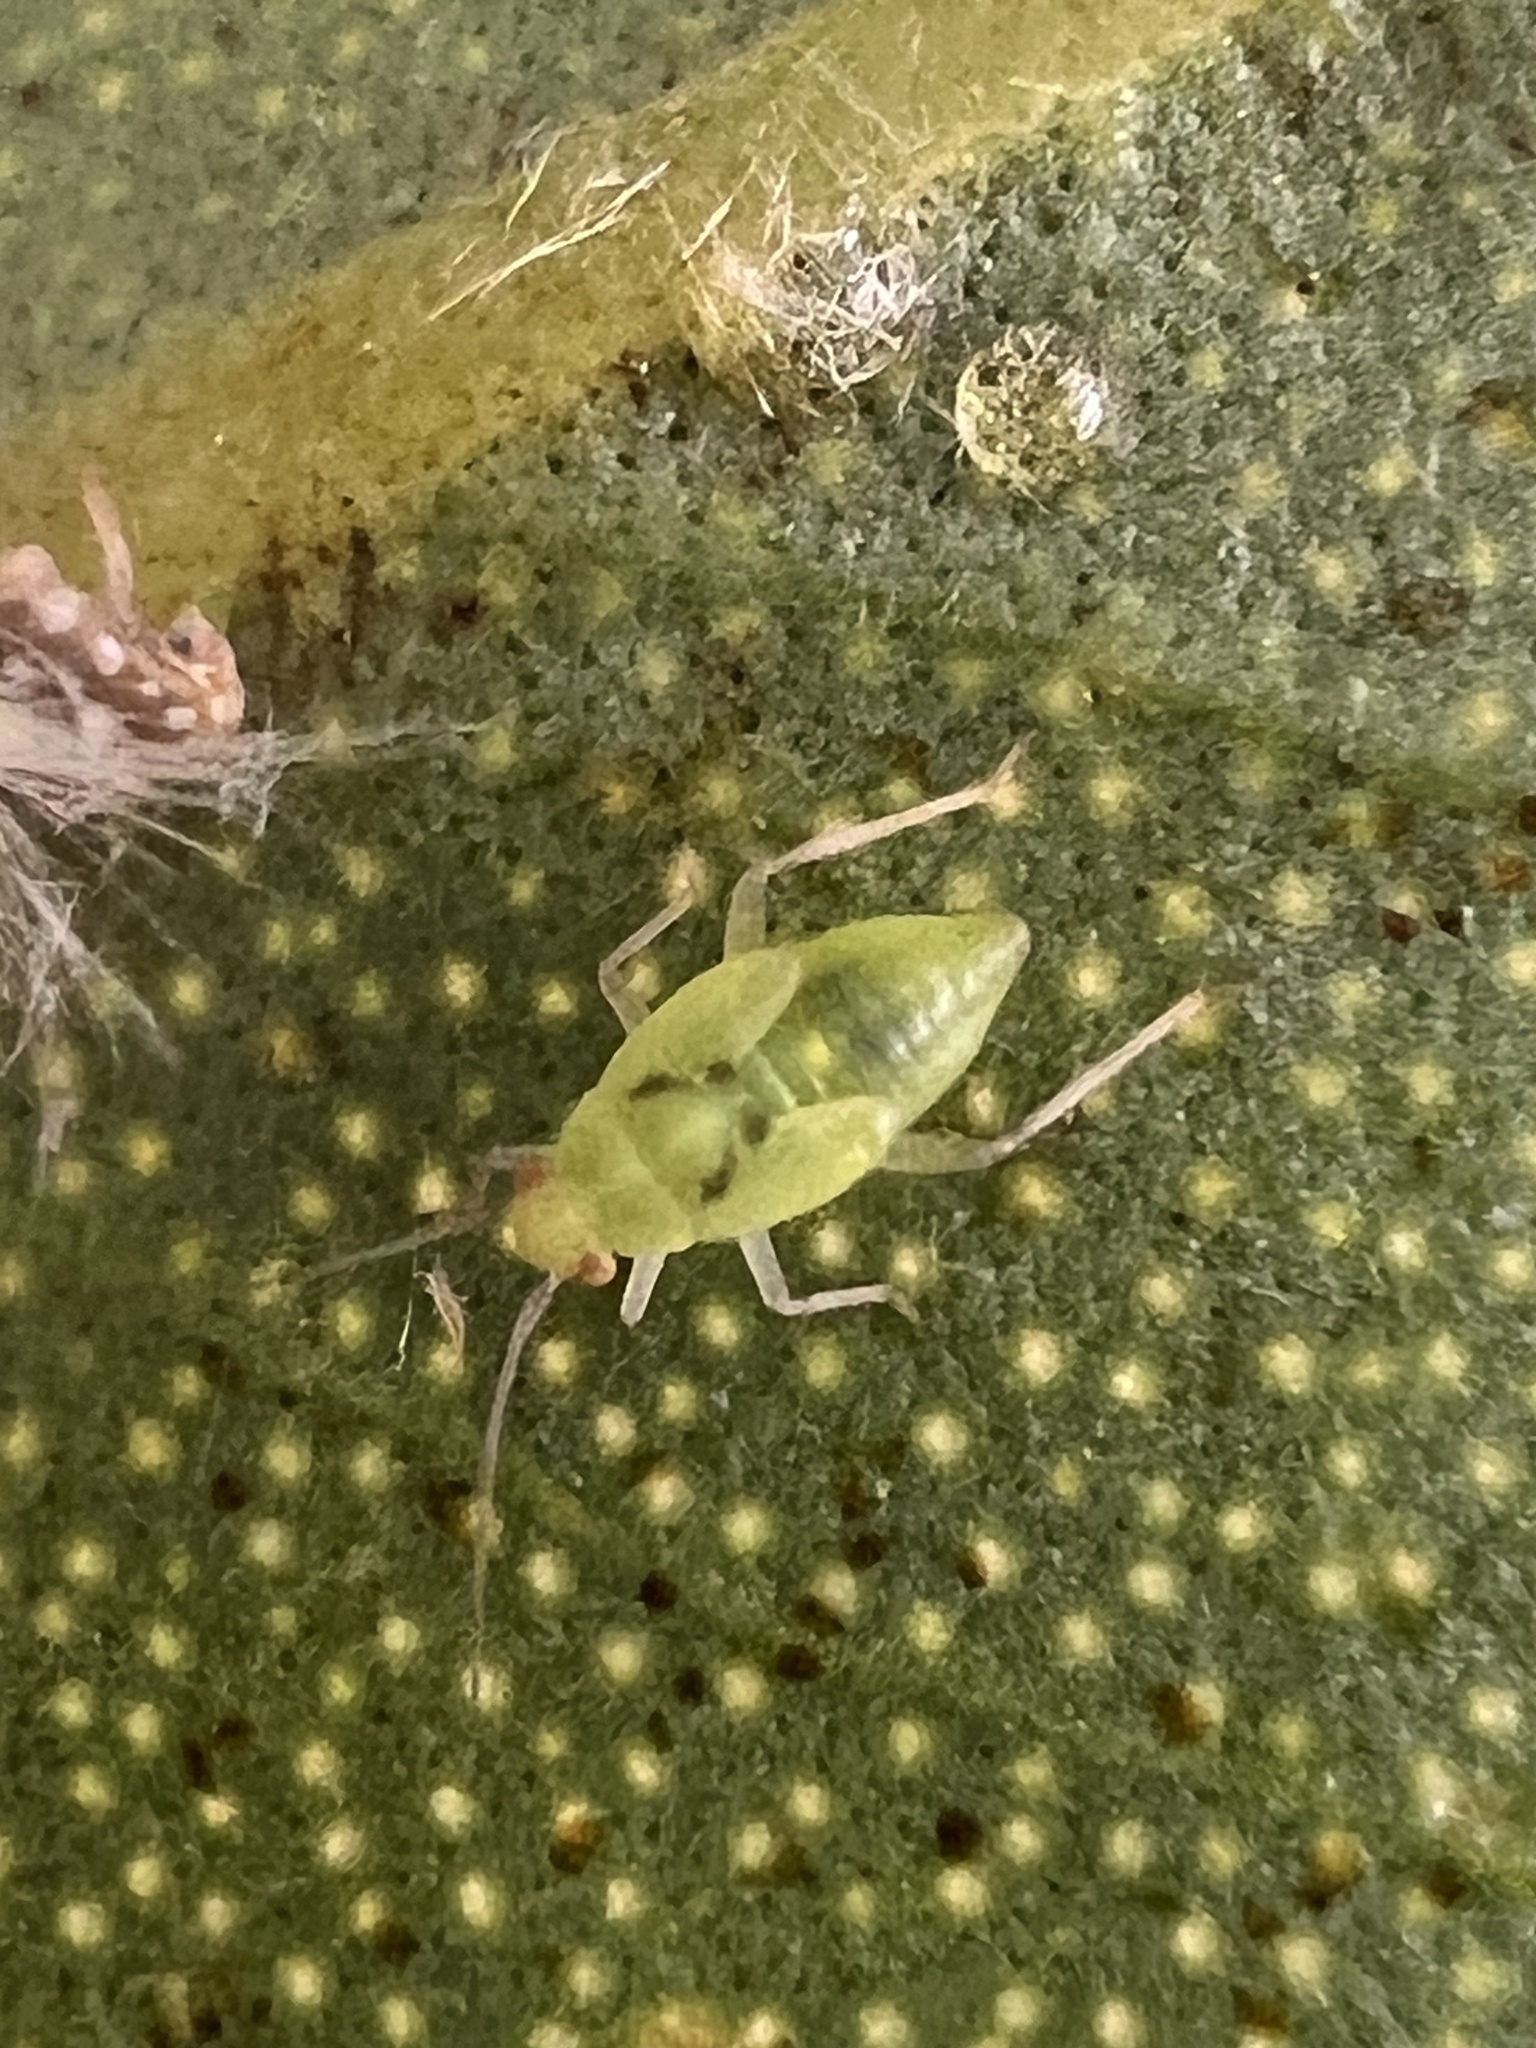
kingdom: Animalia
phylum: Arthropoda
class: Insecta
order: Hemiptera
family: Miridae
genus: Chinamiris
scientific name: Chinamiris aurantiacus
